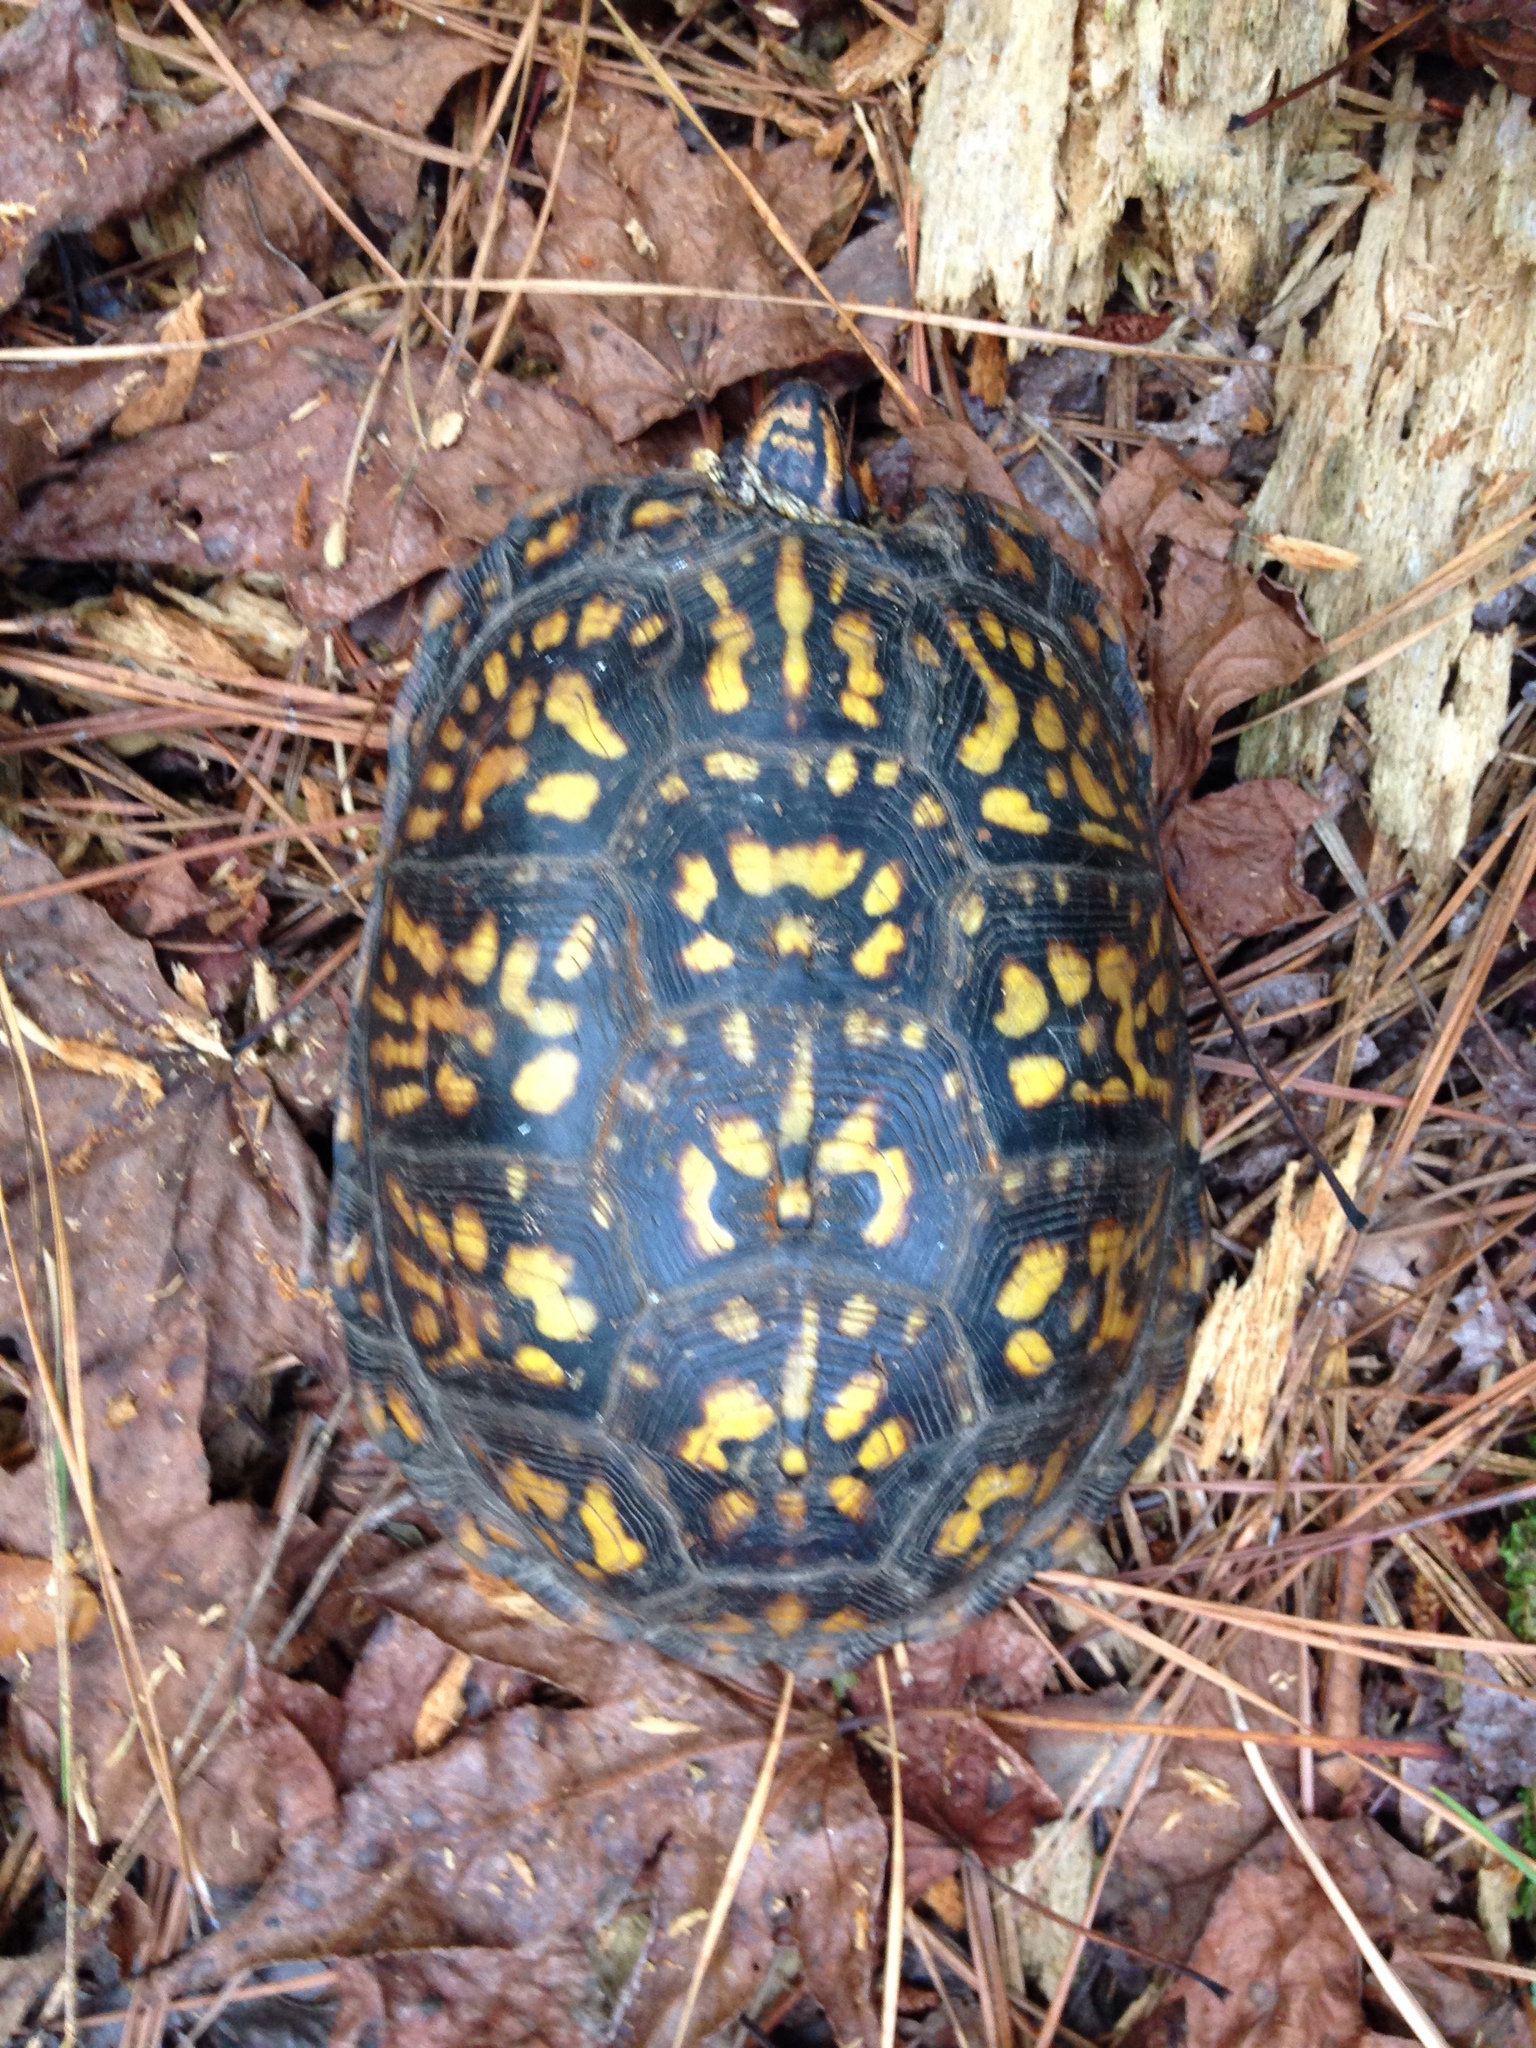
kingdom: Animalia
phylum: Chordata
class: Testudines
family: Emydidae
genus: Terrapene
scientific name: Terrapene carolina
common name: Common box turtle
